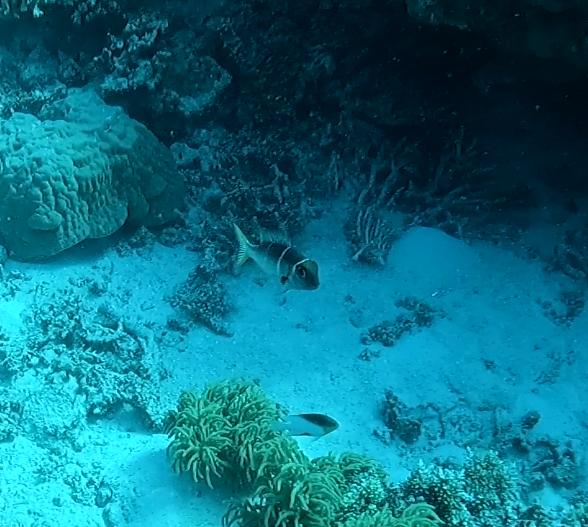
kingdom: Animalia
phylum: Chordata
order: Perciformes
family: Lethrinidae
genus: Monotaxis
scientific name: Monotaxis heterodon
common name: Redfin emperor
